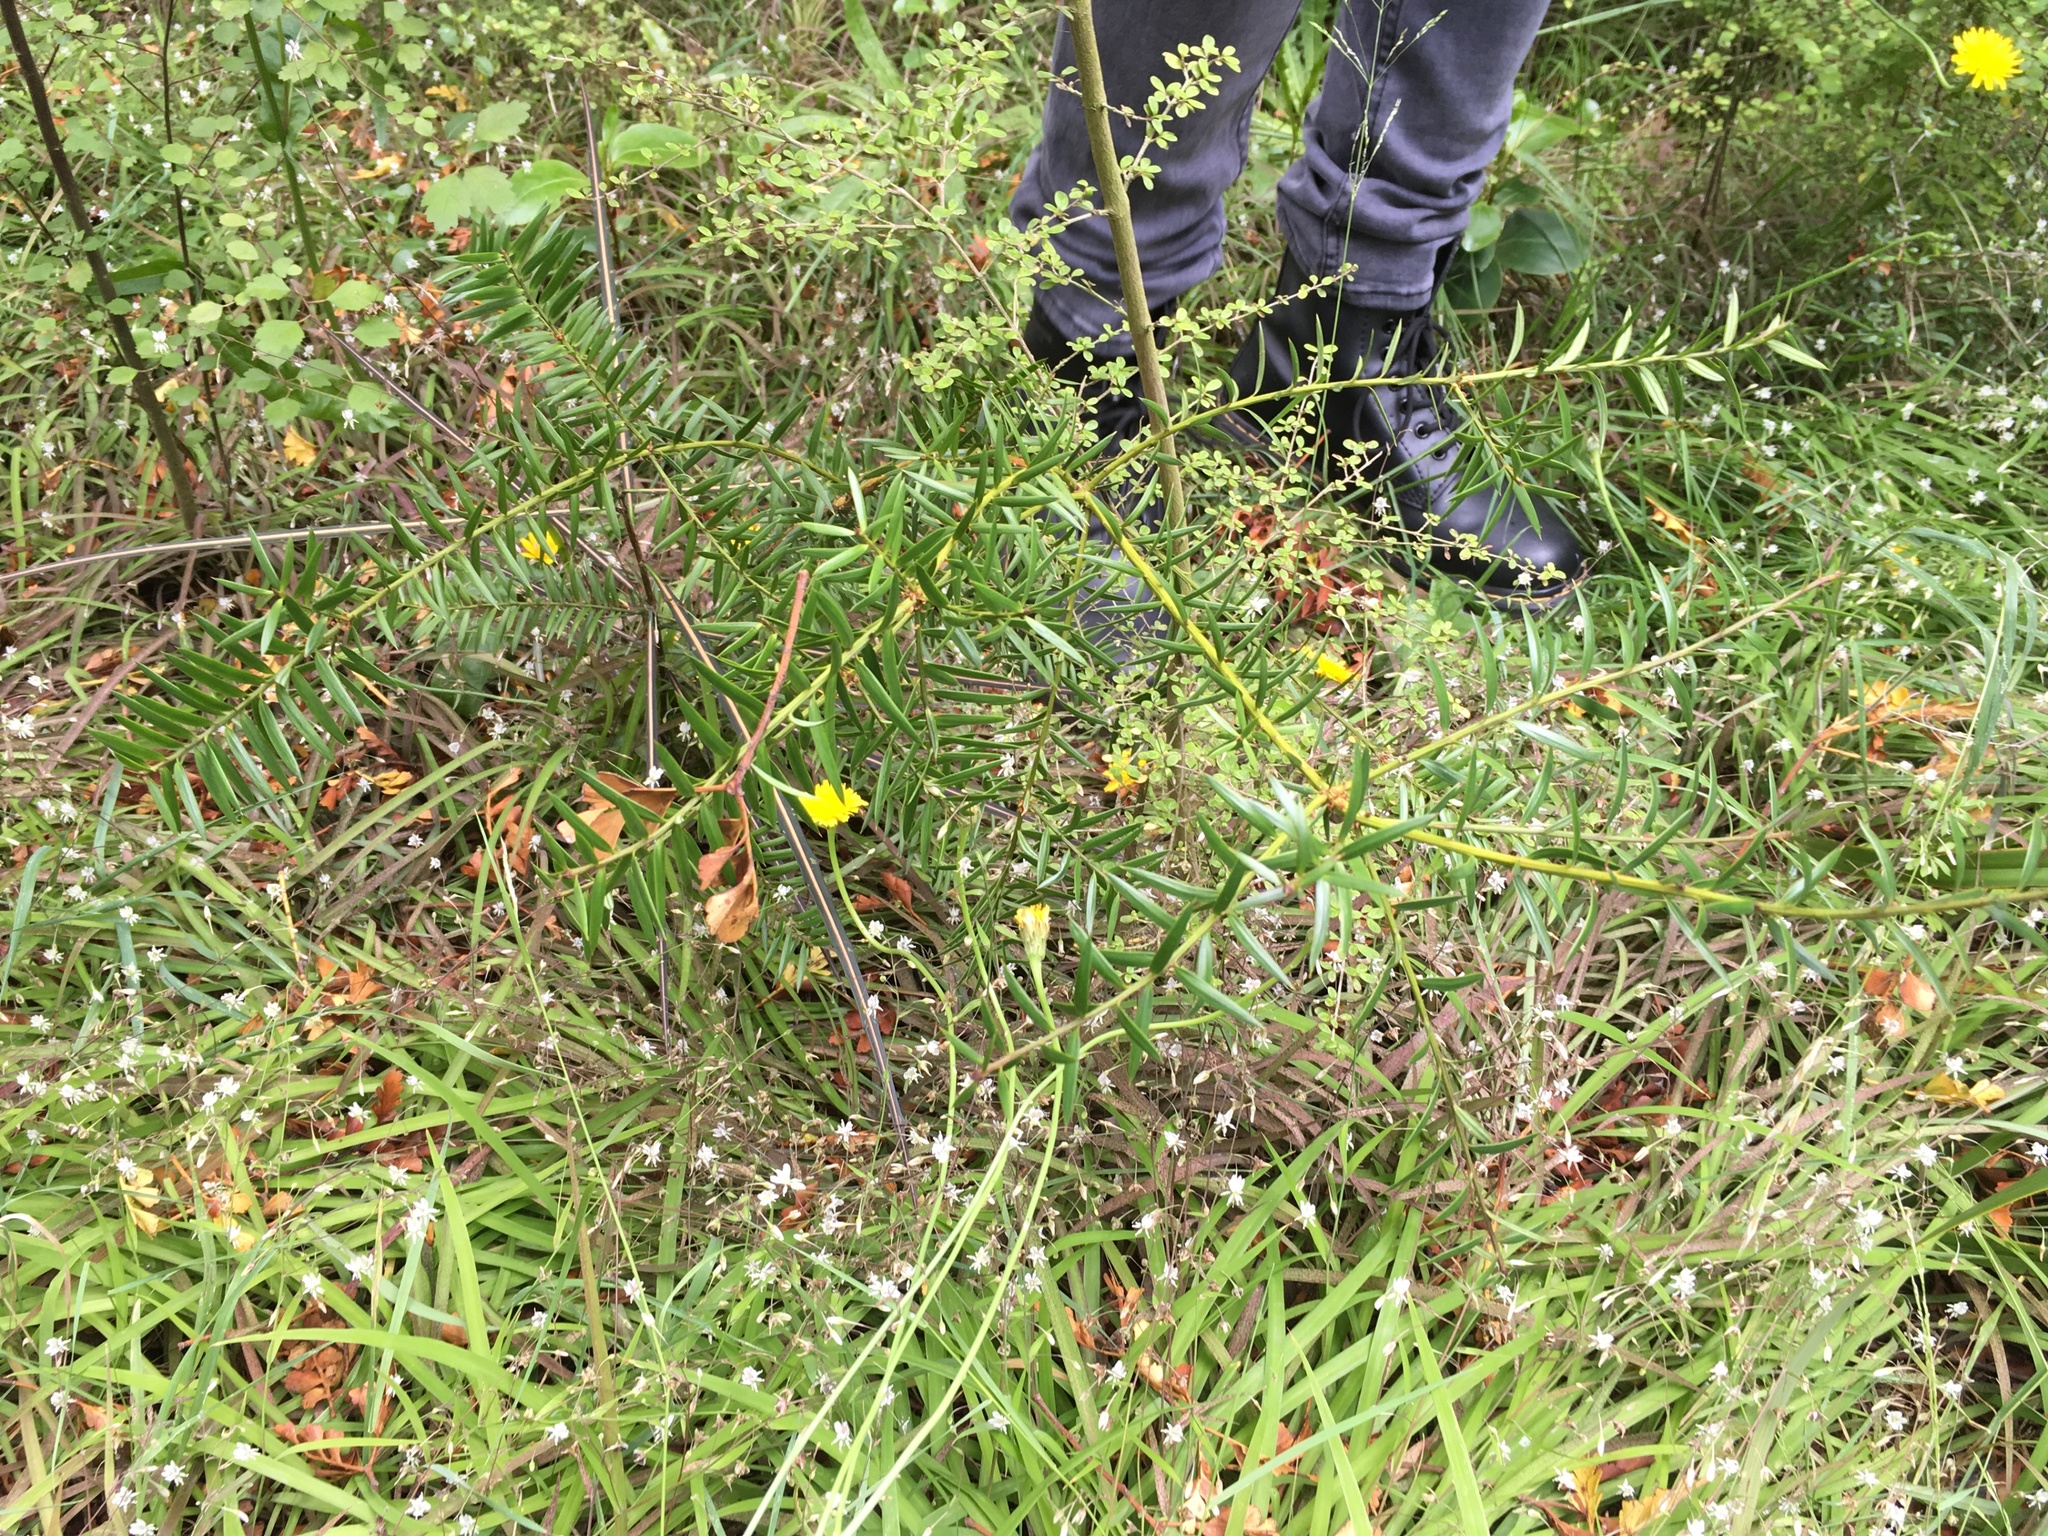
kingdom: Plantae
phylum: Tracheophyta
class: Pinopsida
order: Pinales
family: Podocarpaceae
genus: Podocarpus
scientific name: Podocarpus totara
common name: Totara
